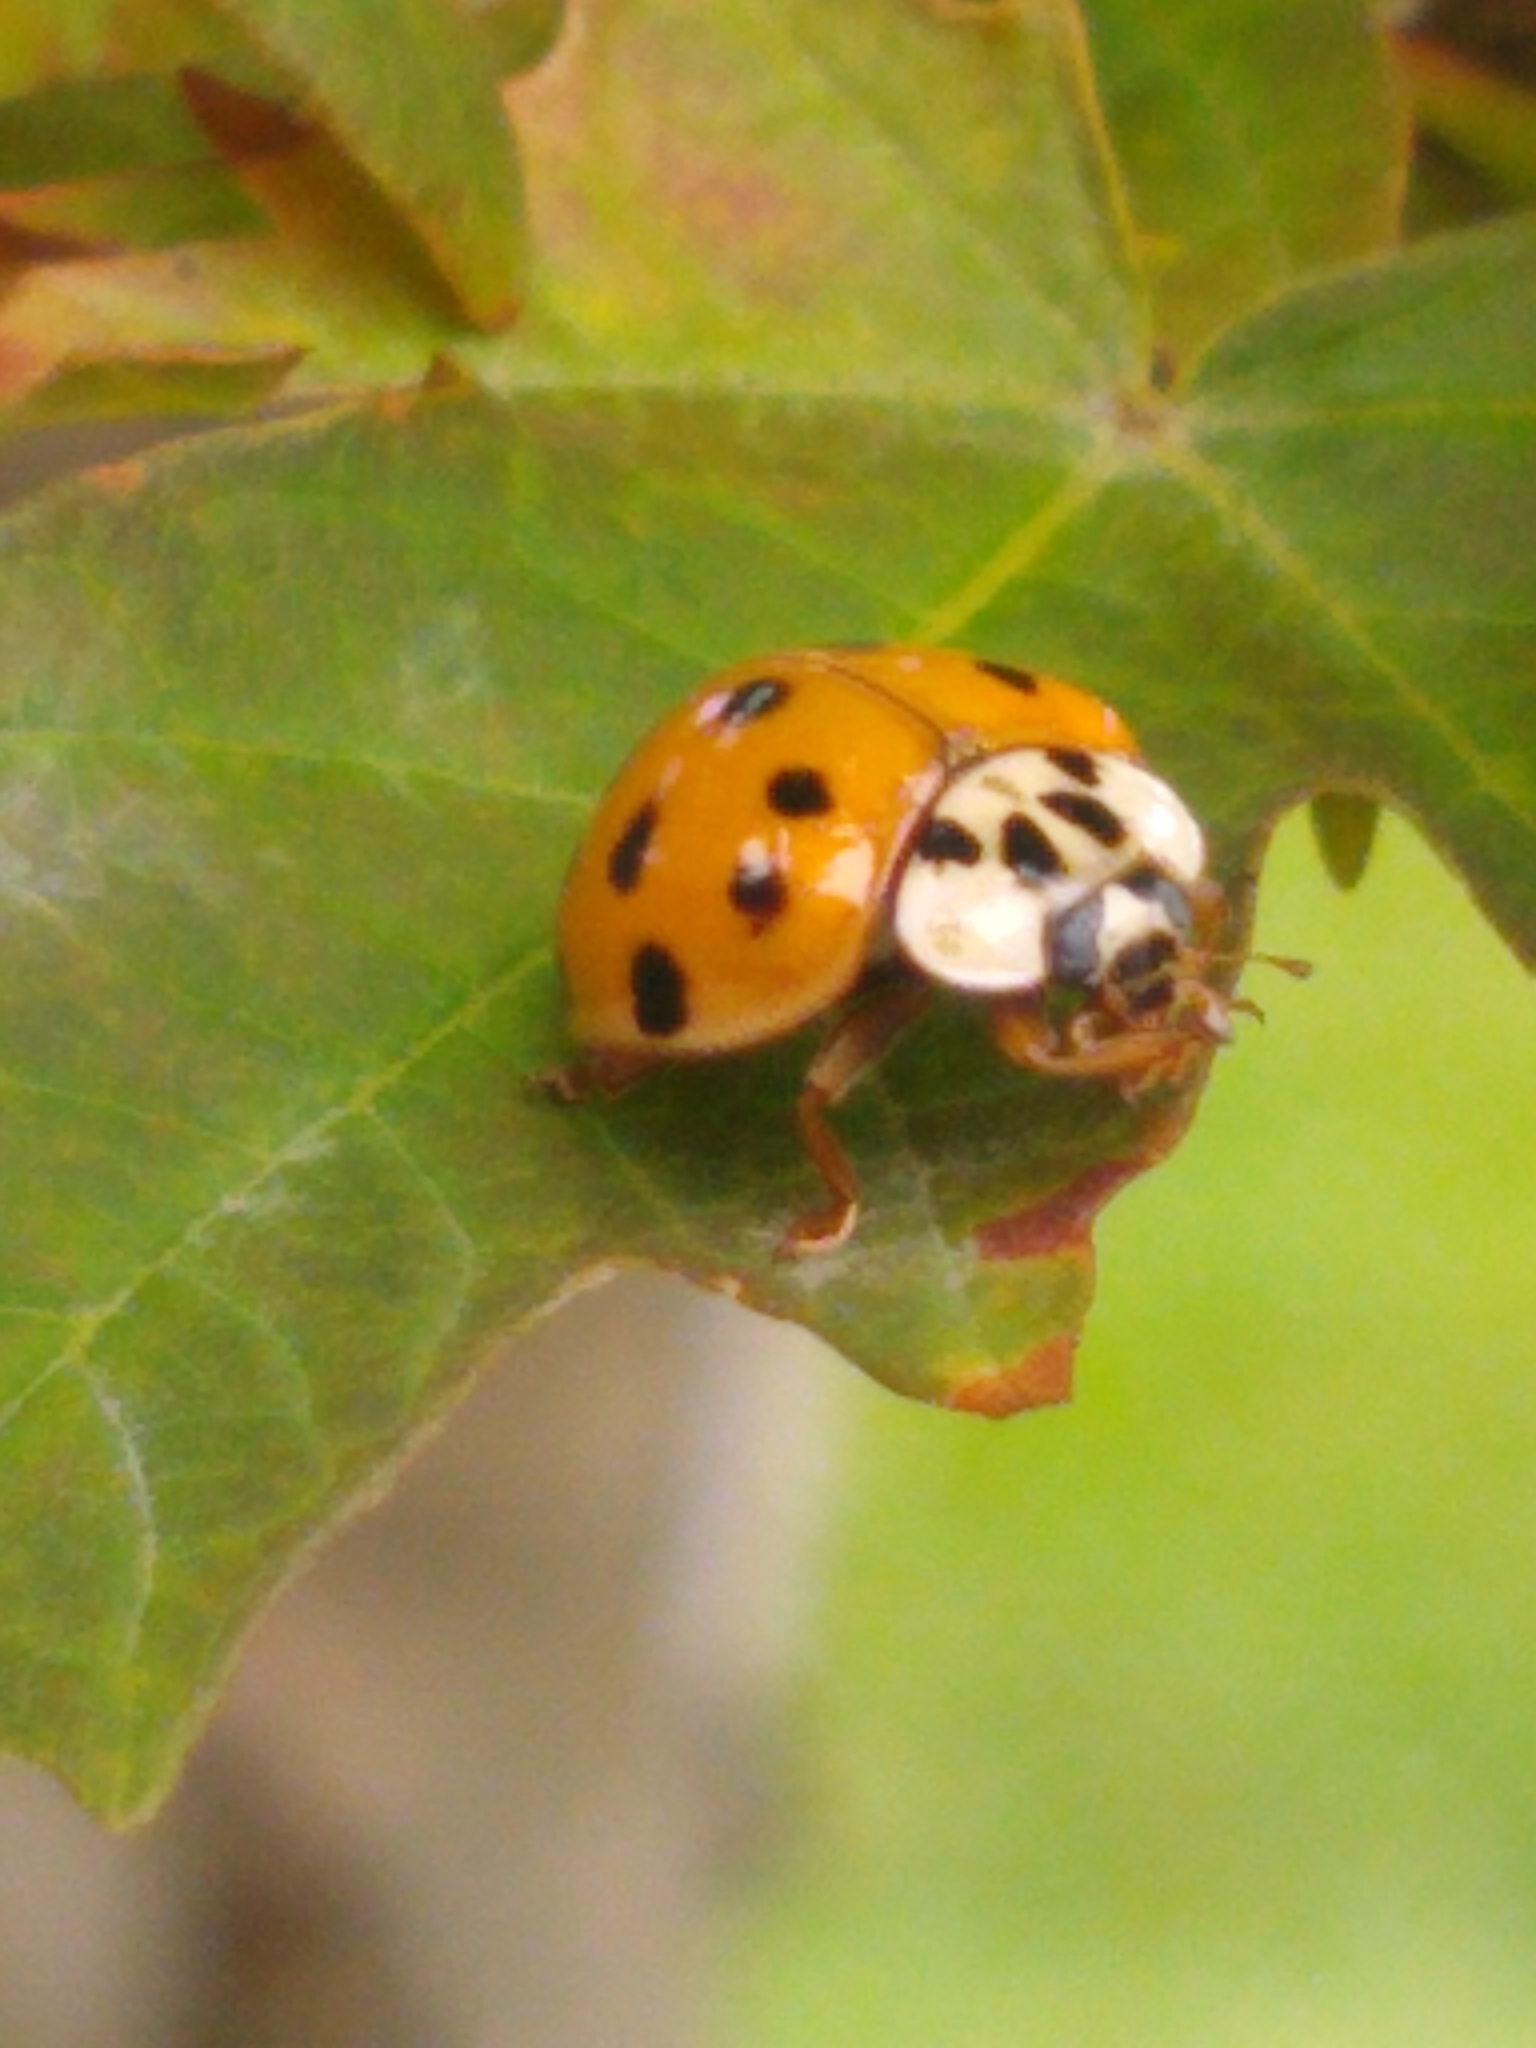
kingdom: Animalia
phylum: Arthropoda
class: Insecta
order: Coleoptera
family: Coccinellidae
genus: Harmonia
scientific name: Harmonia axyridis
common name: Harlequin ladybird
